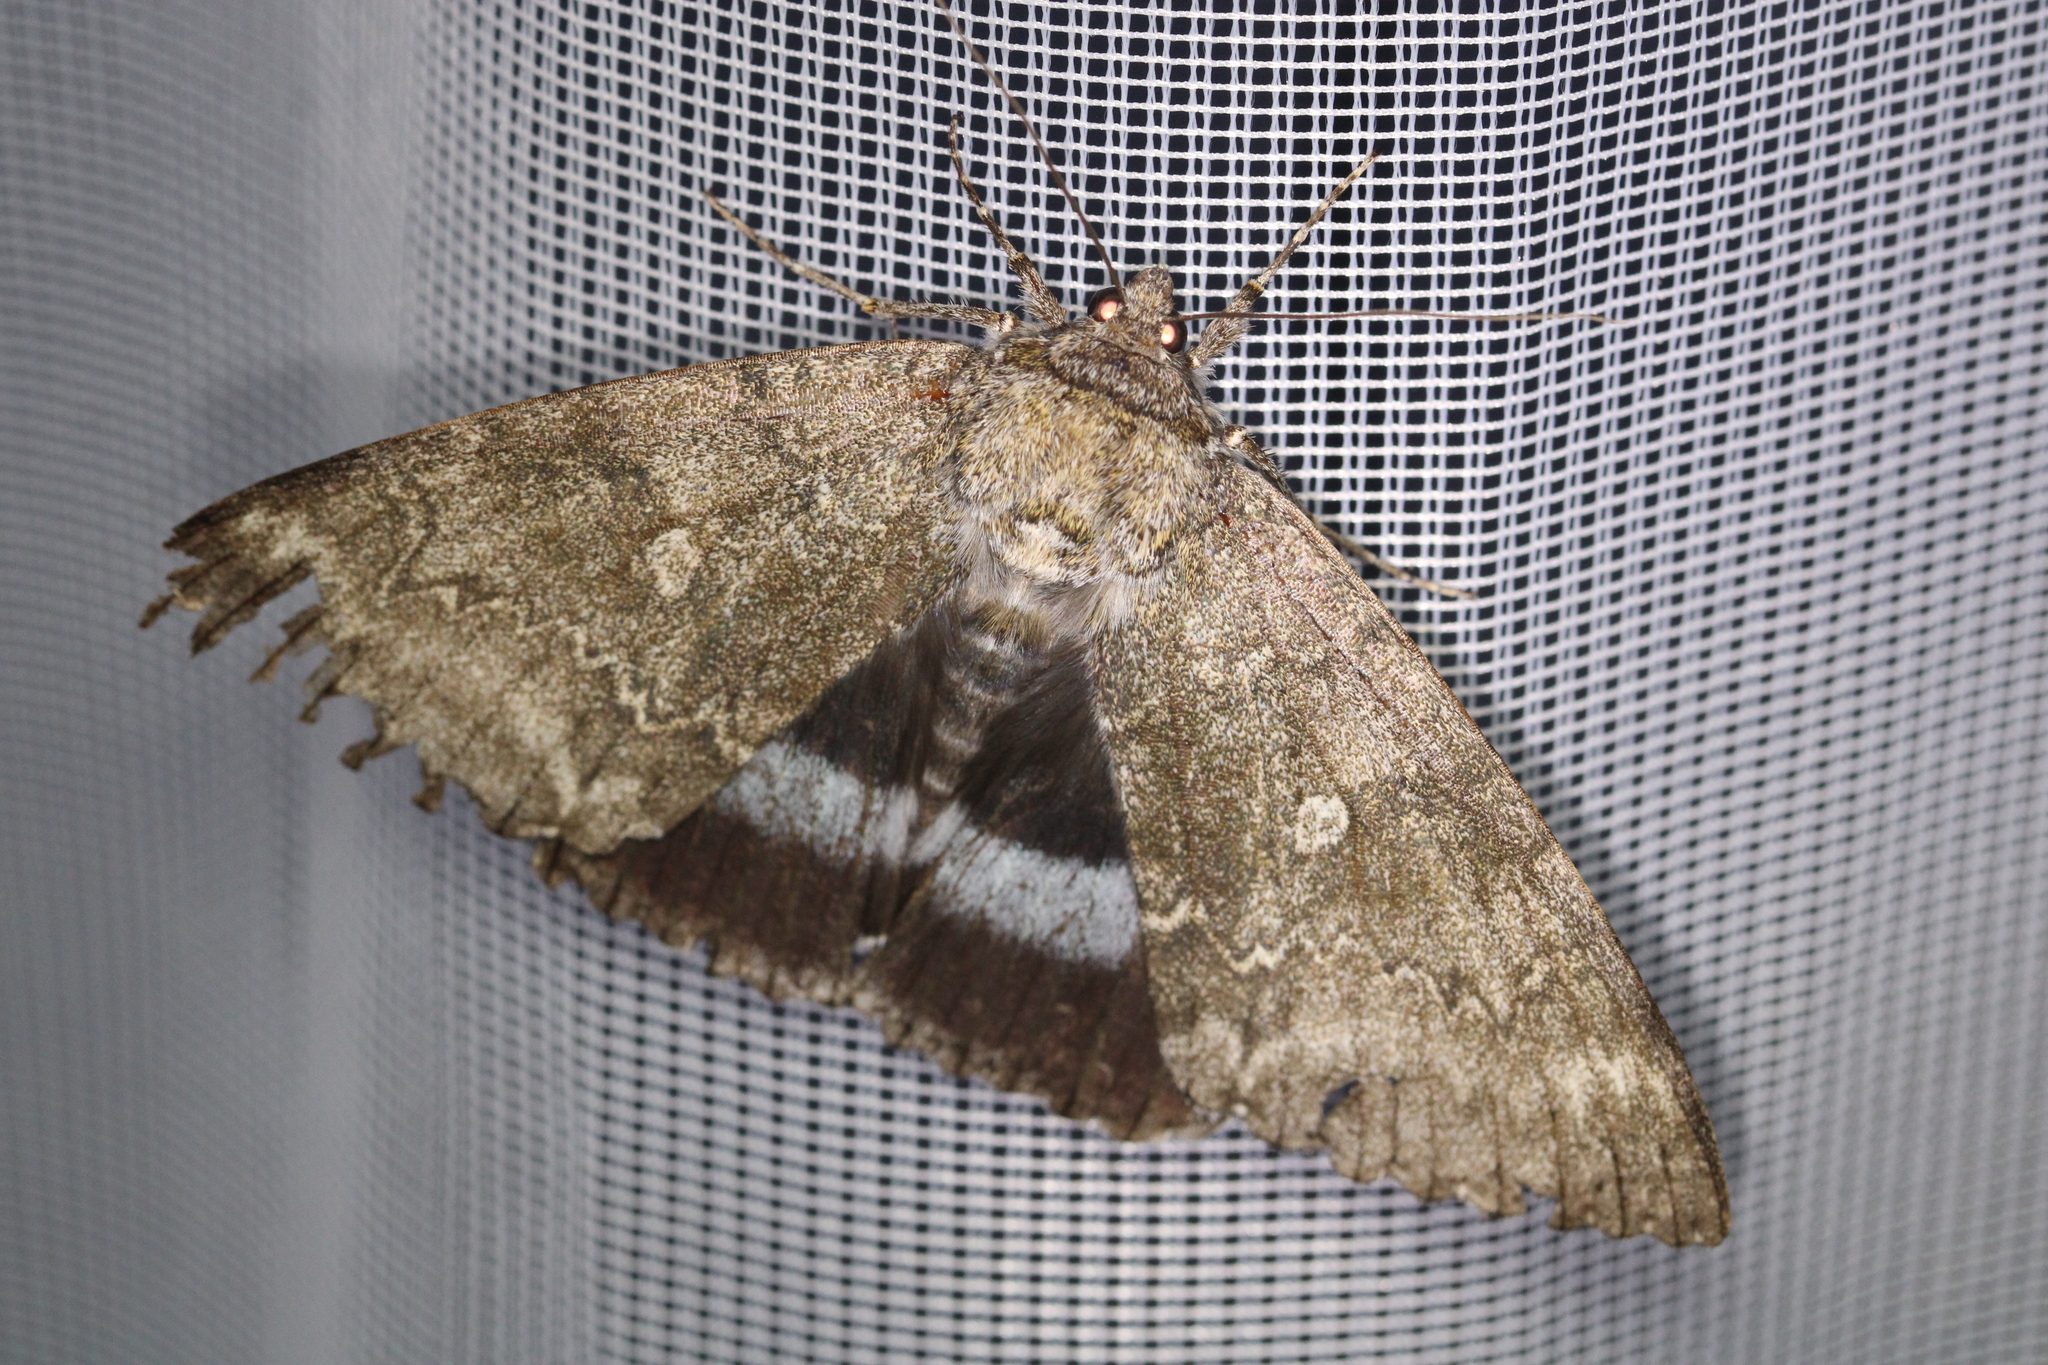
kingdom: Animalia
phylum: Arthropoda
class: Insecta
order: Lepidoptera
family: Erebidae
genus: Catocala
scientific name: Catocala fraxini
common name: Clifden nonpareil
